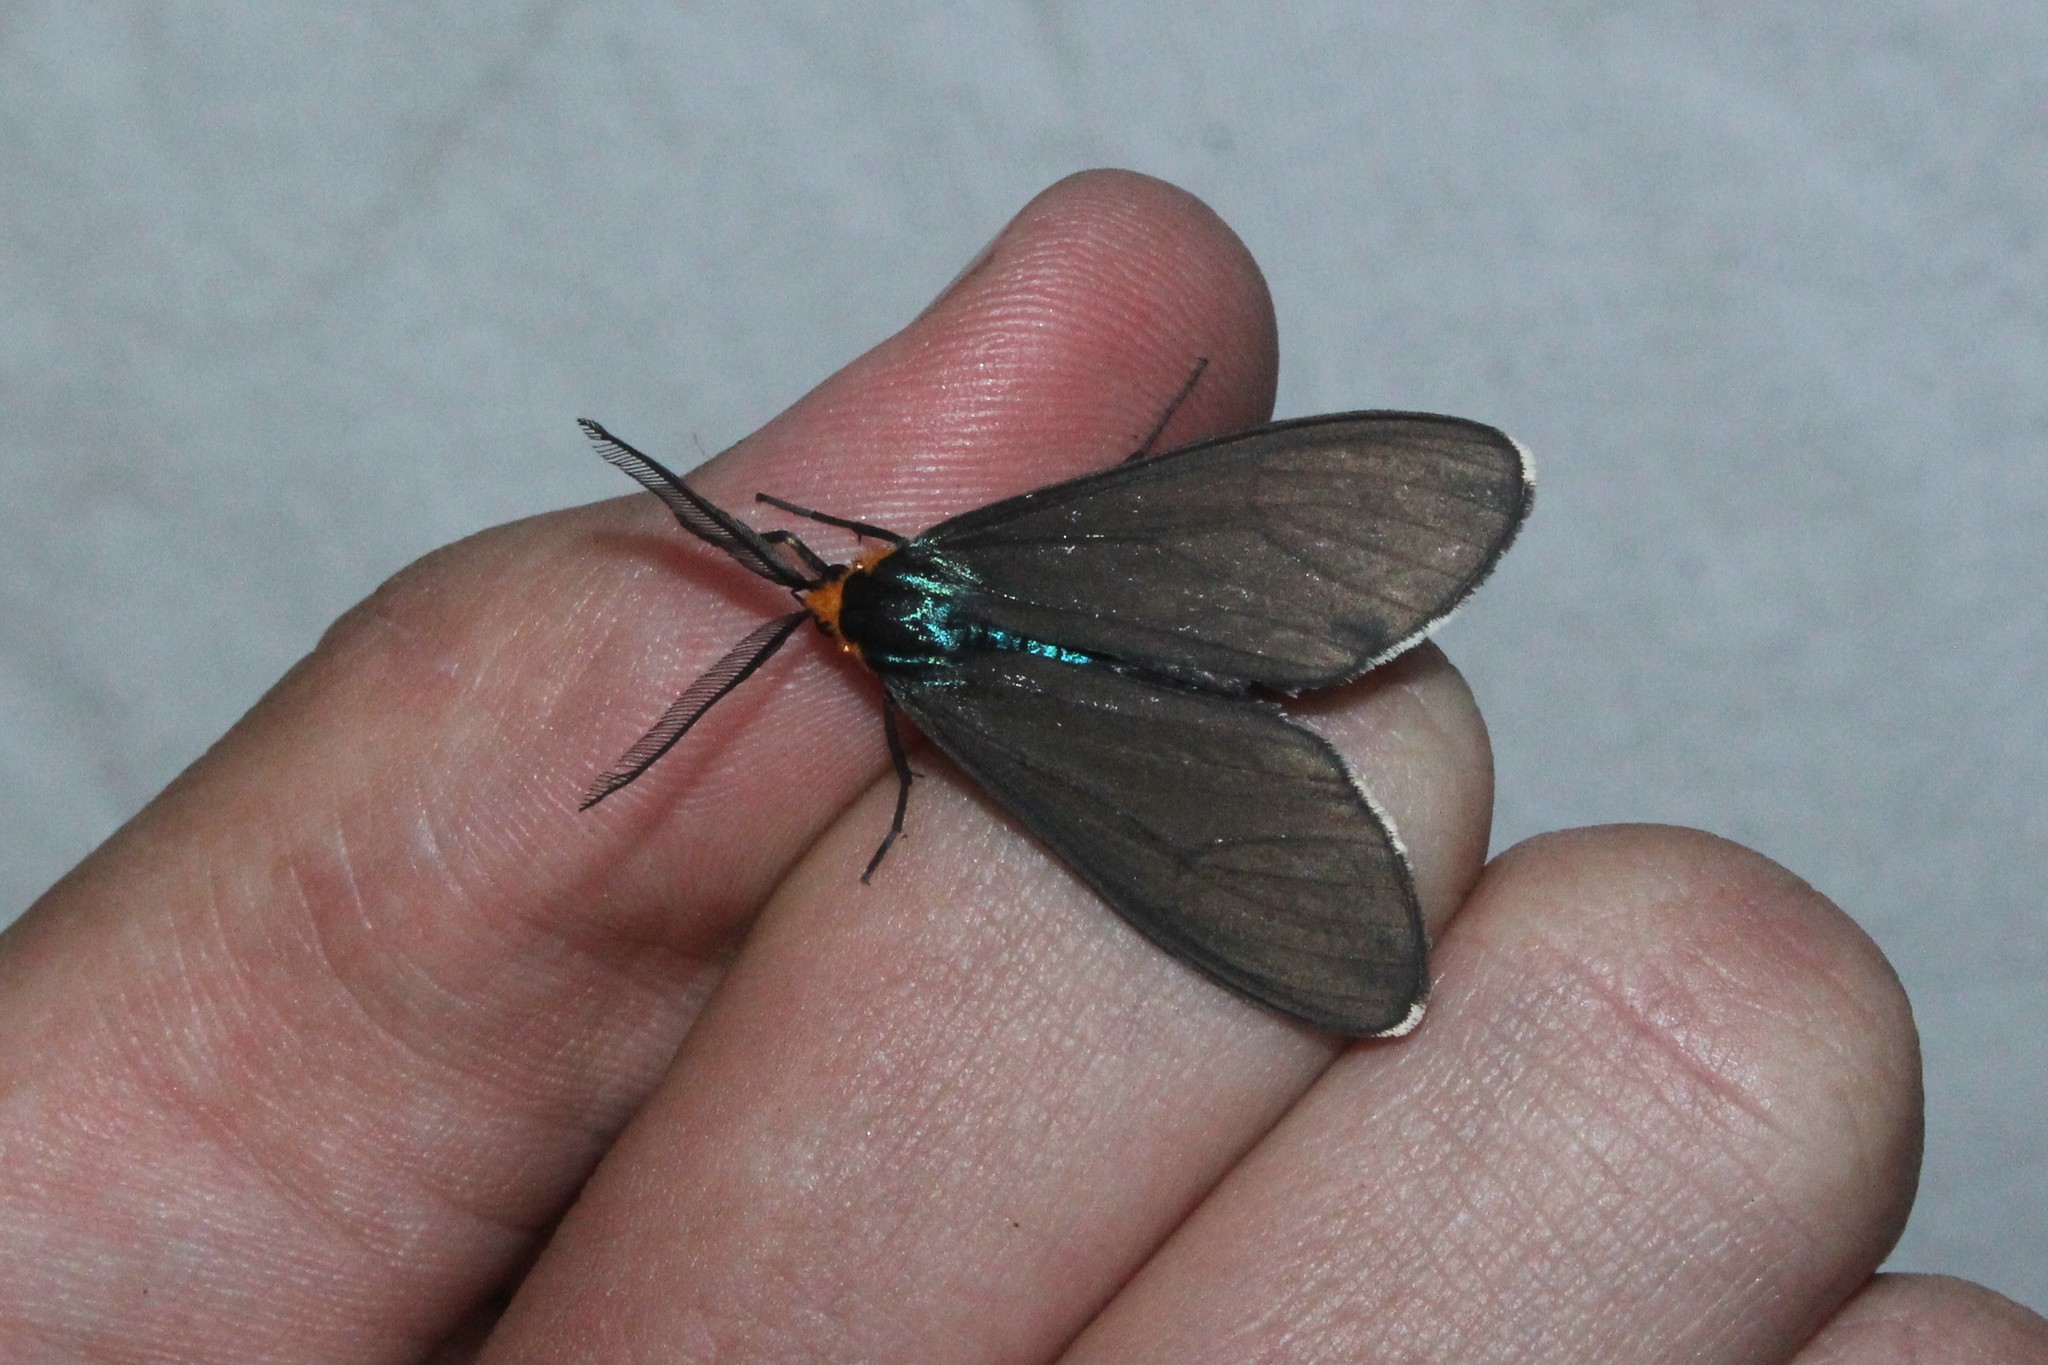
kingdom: Animalia
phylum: Arthropoda
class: Insecta
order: Lepidoptera
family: Erebidae
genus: Ctenucha
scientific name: Ctenucha virginica
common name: Virginia ctenucha moth
